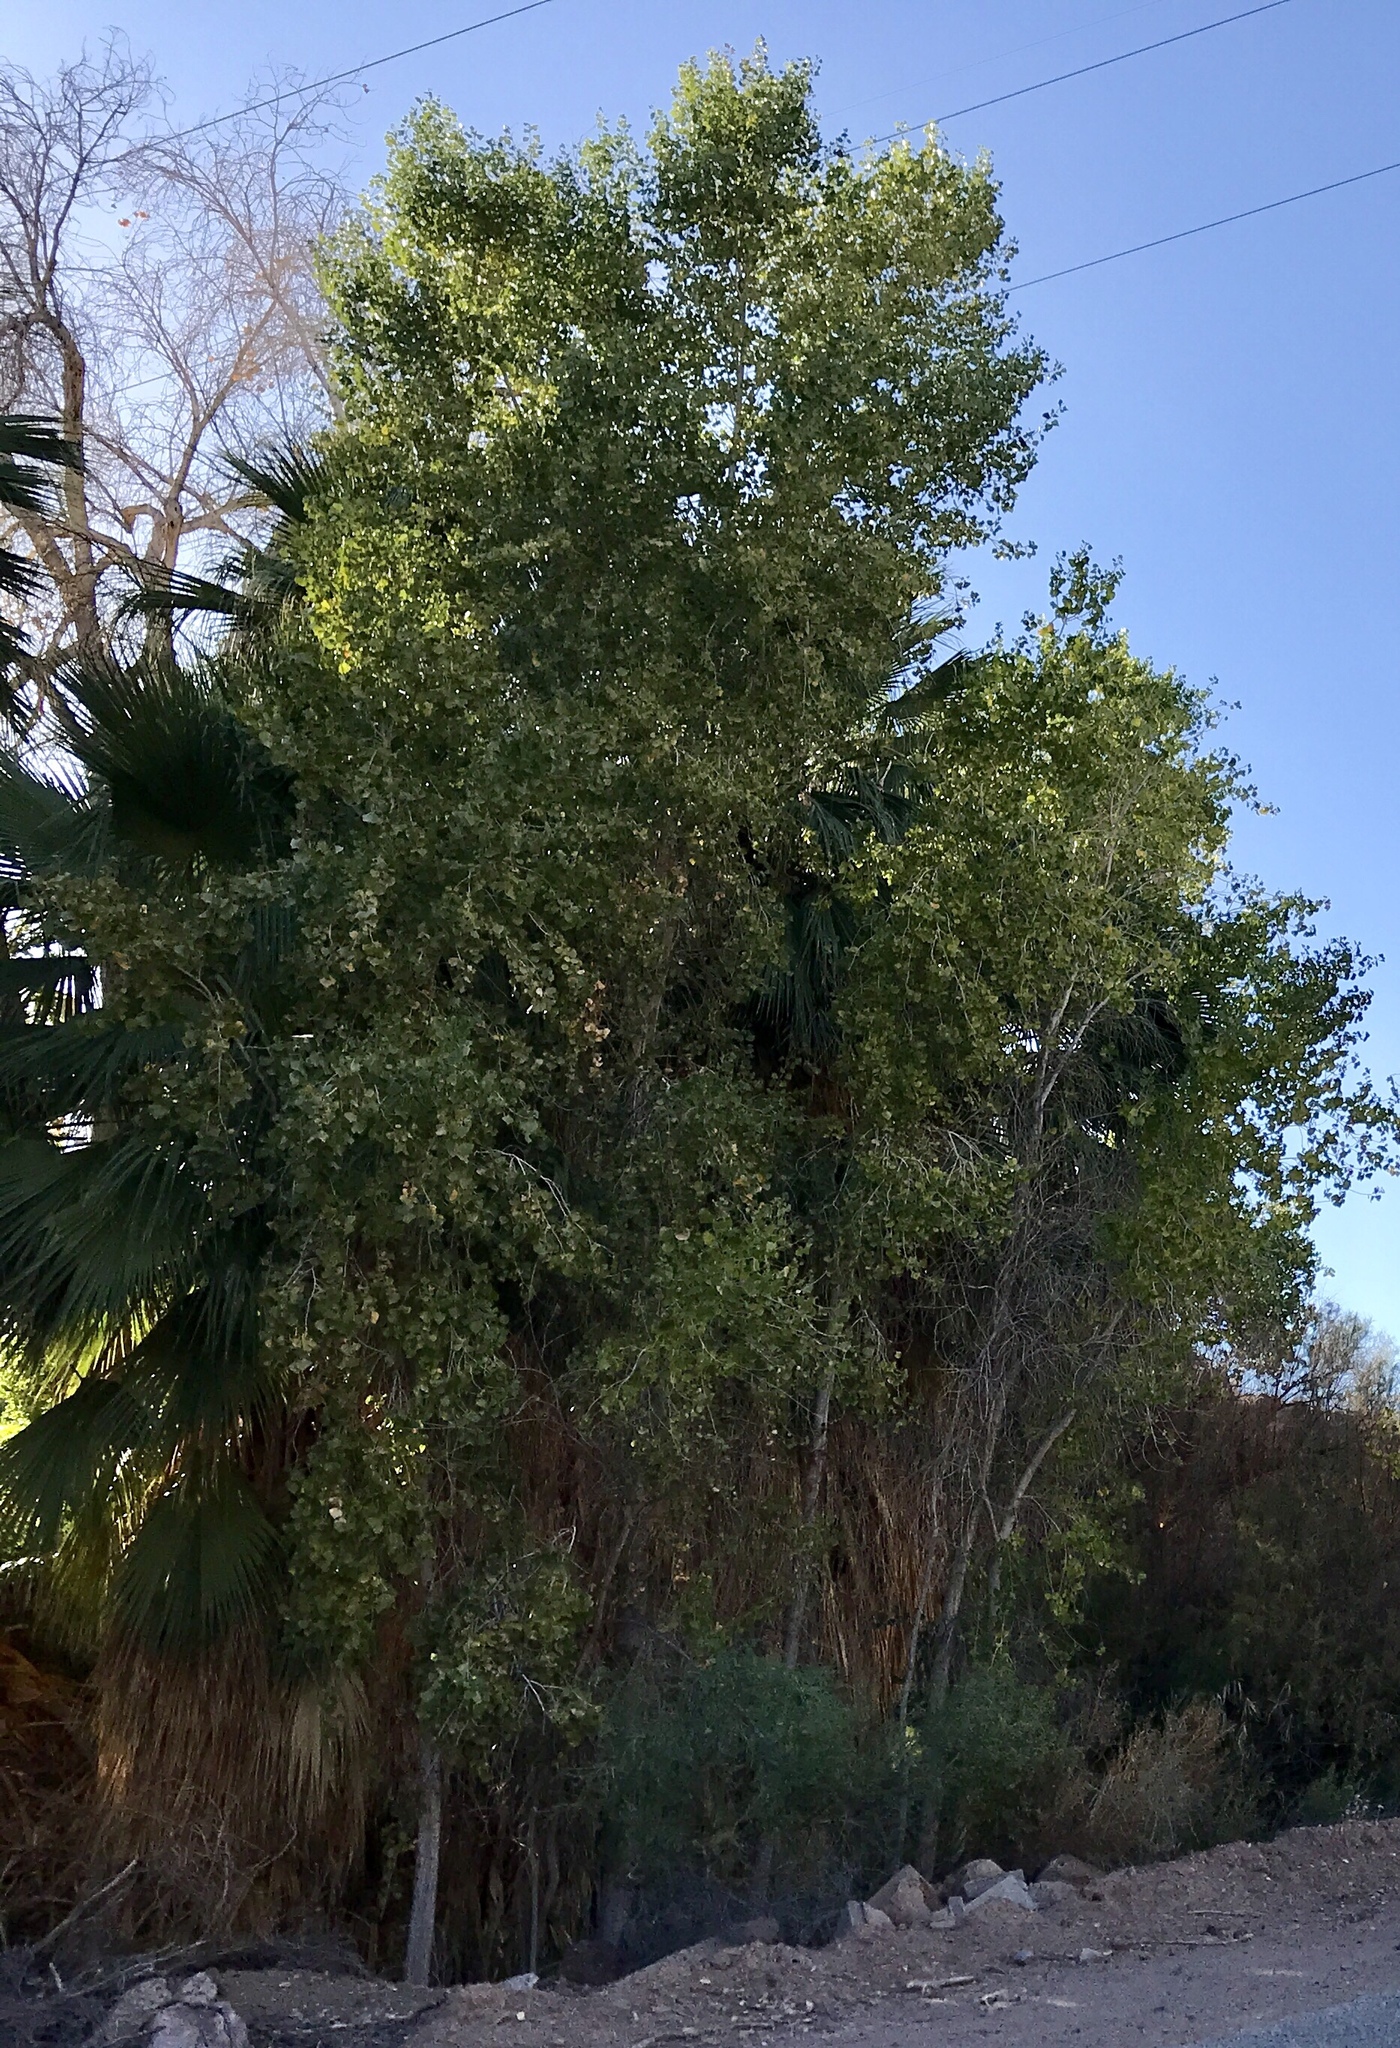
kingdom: Plantae
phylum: Tracheophyta
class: Magnoliopsida
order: Malpighiales
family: Salicaceae
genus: Populus
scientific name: Populus fremontii
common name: Fremont's cottonwood
